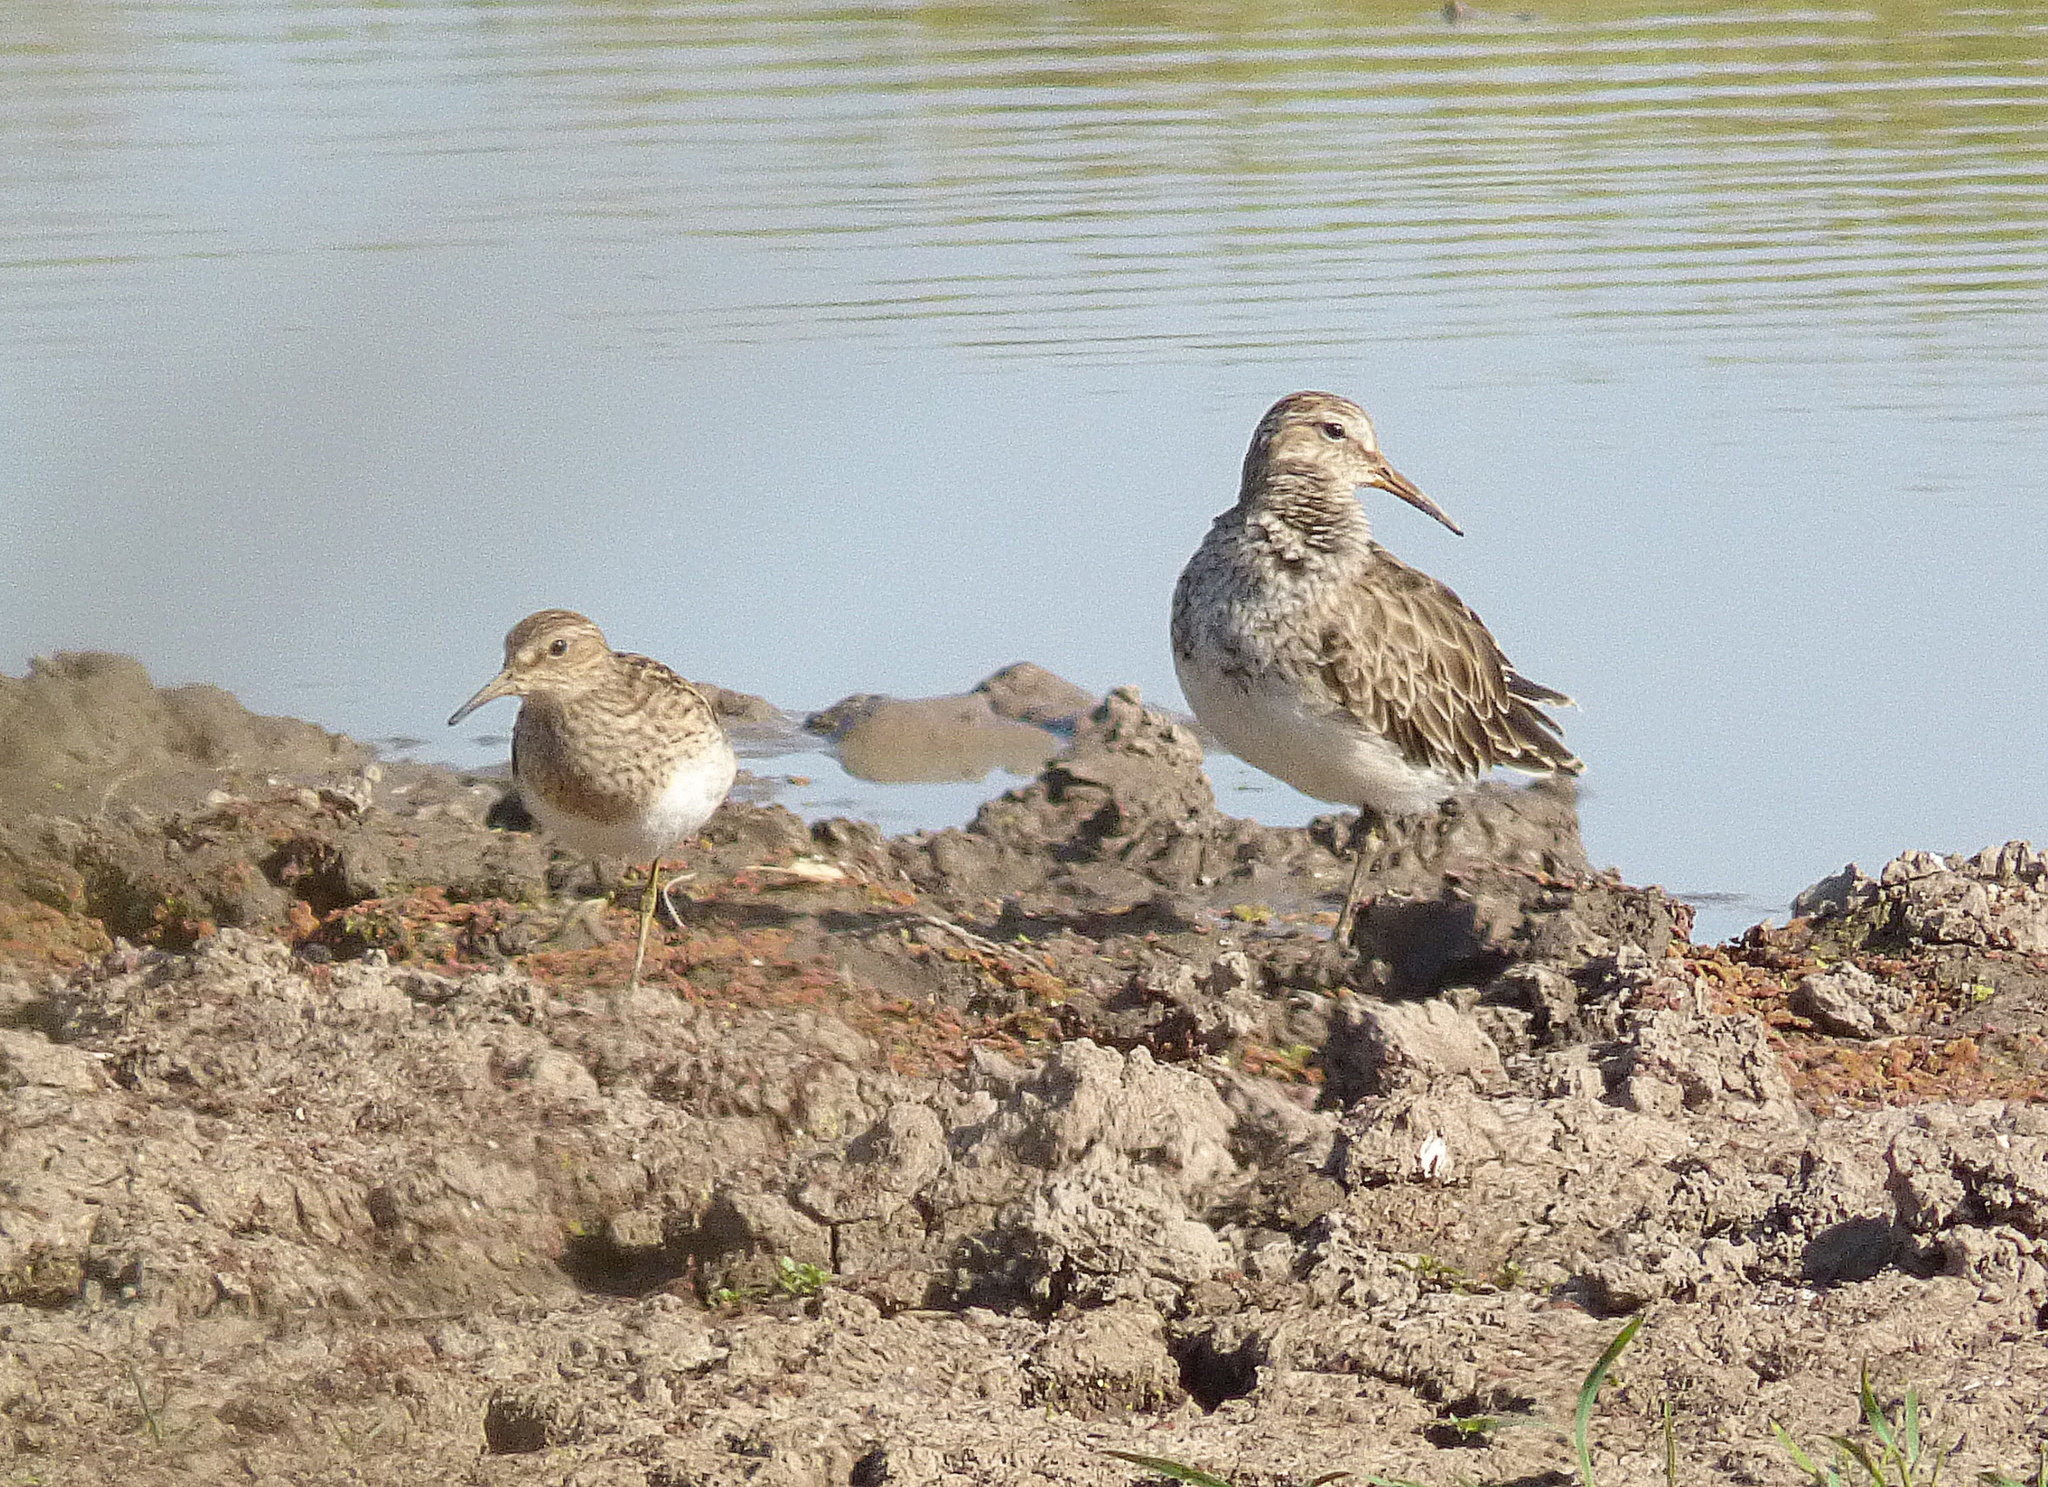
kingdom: Animalia
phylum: Chordata
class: Aves
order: Charadriiformes
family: Scolopacidae
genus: Calidris
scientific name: Calidris melanotos
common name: Pectoral sandpiper
